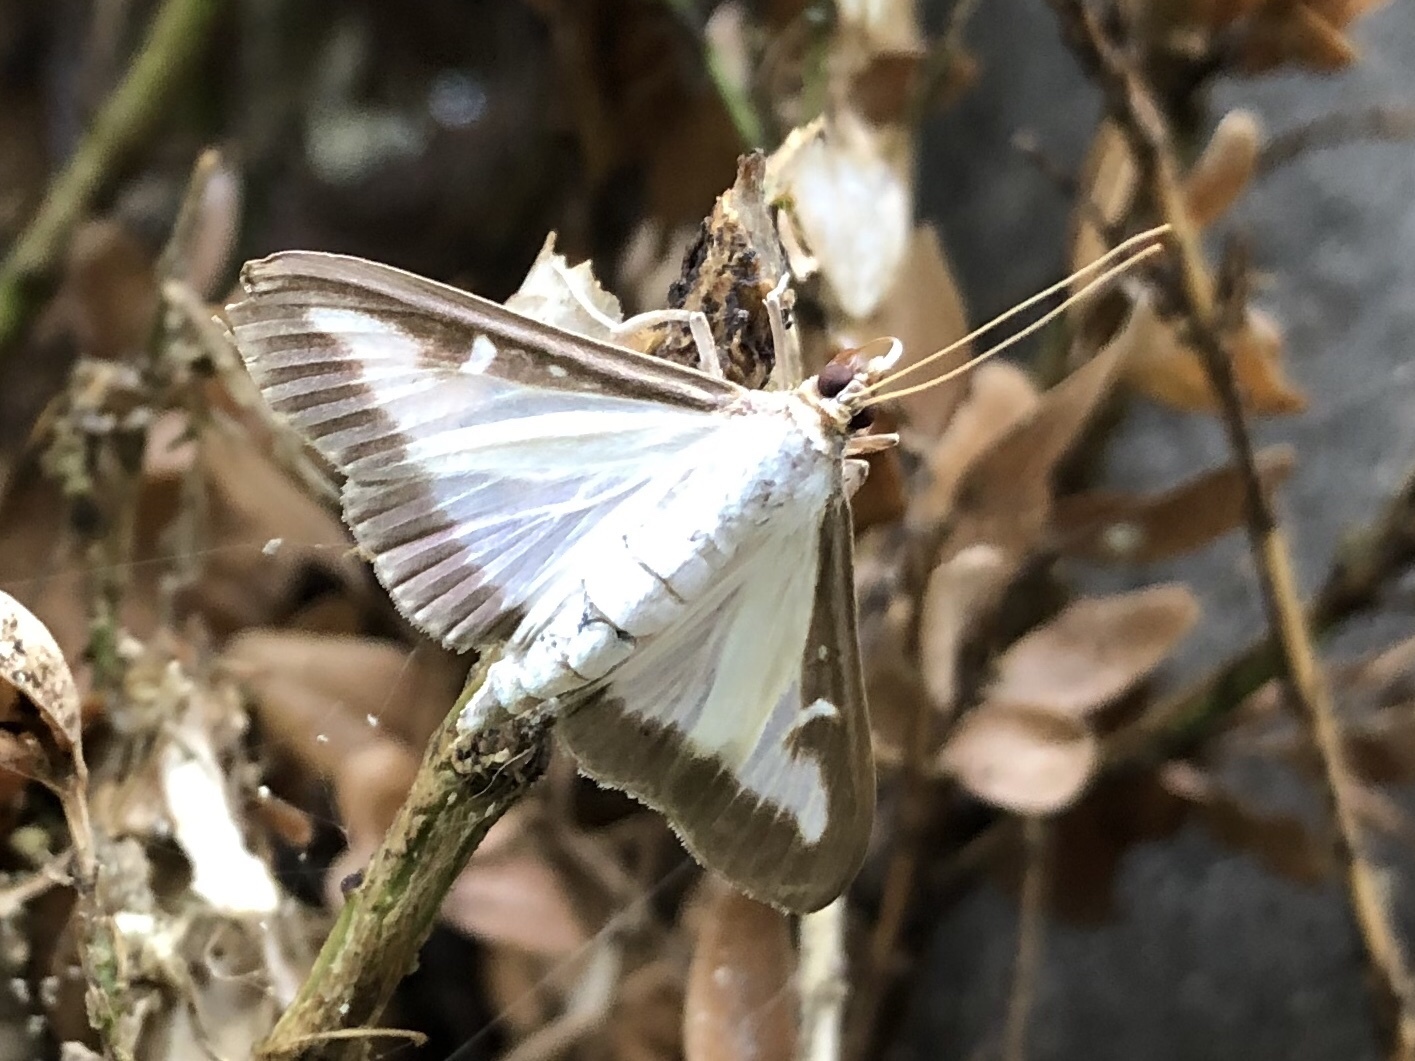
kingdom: Animalia
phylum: Arthropoda
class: Insecta
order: Lepidoptera
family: Crambidae
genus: Cydalima
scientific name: Cydalima perspectalis
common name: Box tree moth
